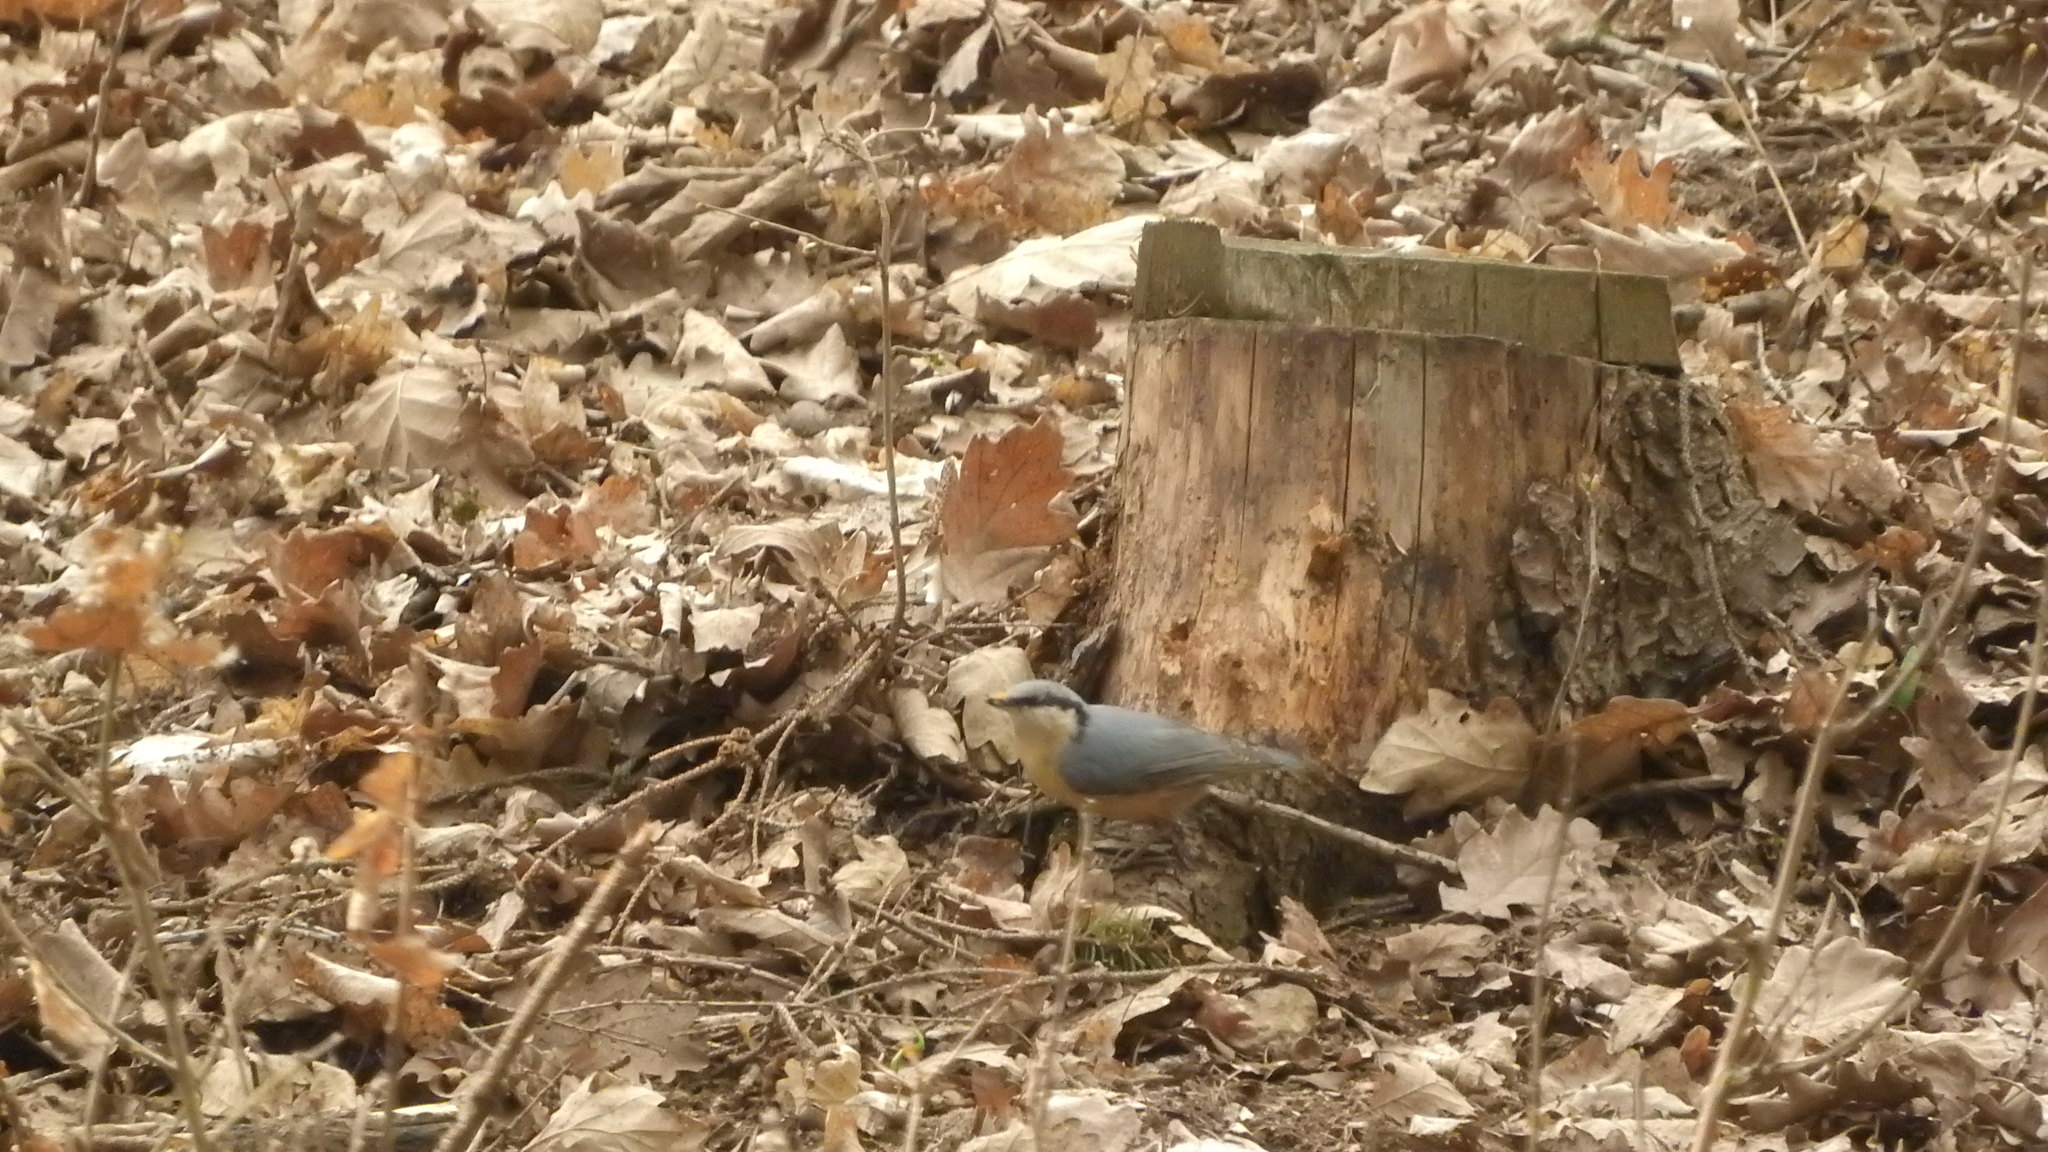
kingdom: Animalia
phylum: Chordata
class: Aves
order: Passeriformes
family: Sittidae
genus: Sitta
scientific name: Sitta europaea
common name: Eurasian nuthatch
